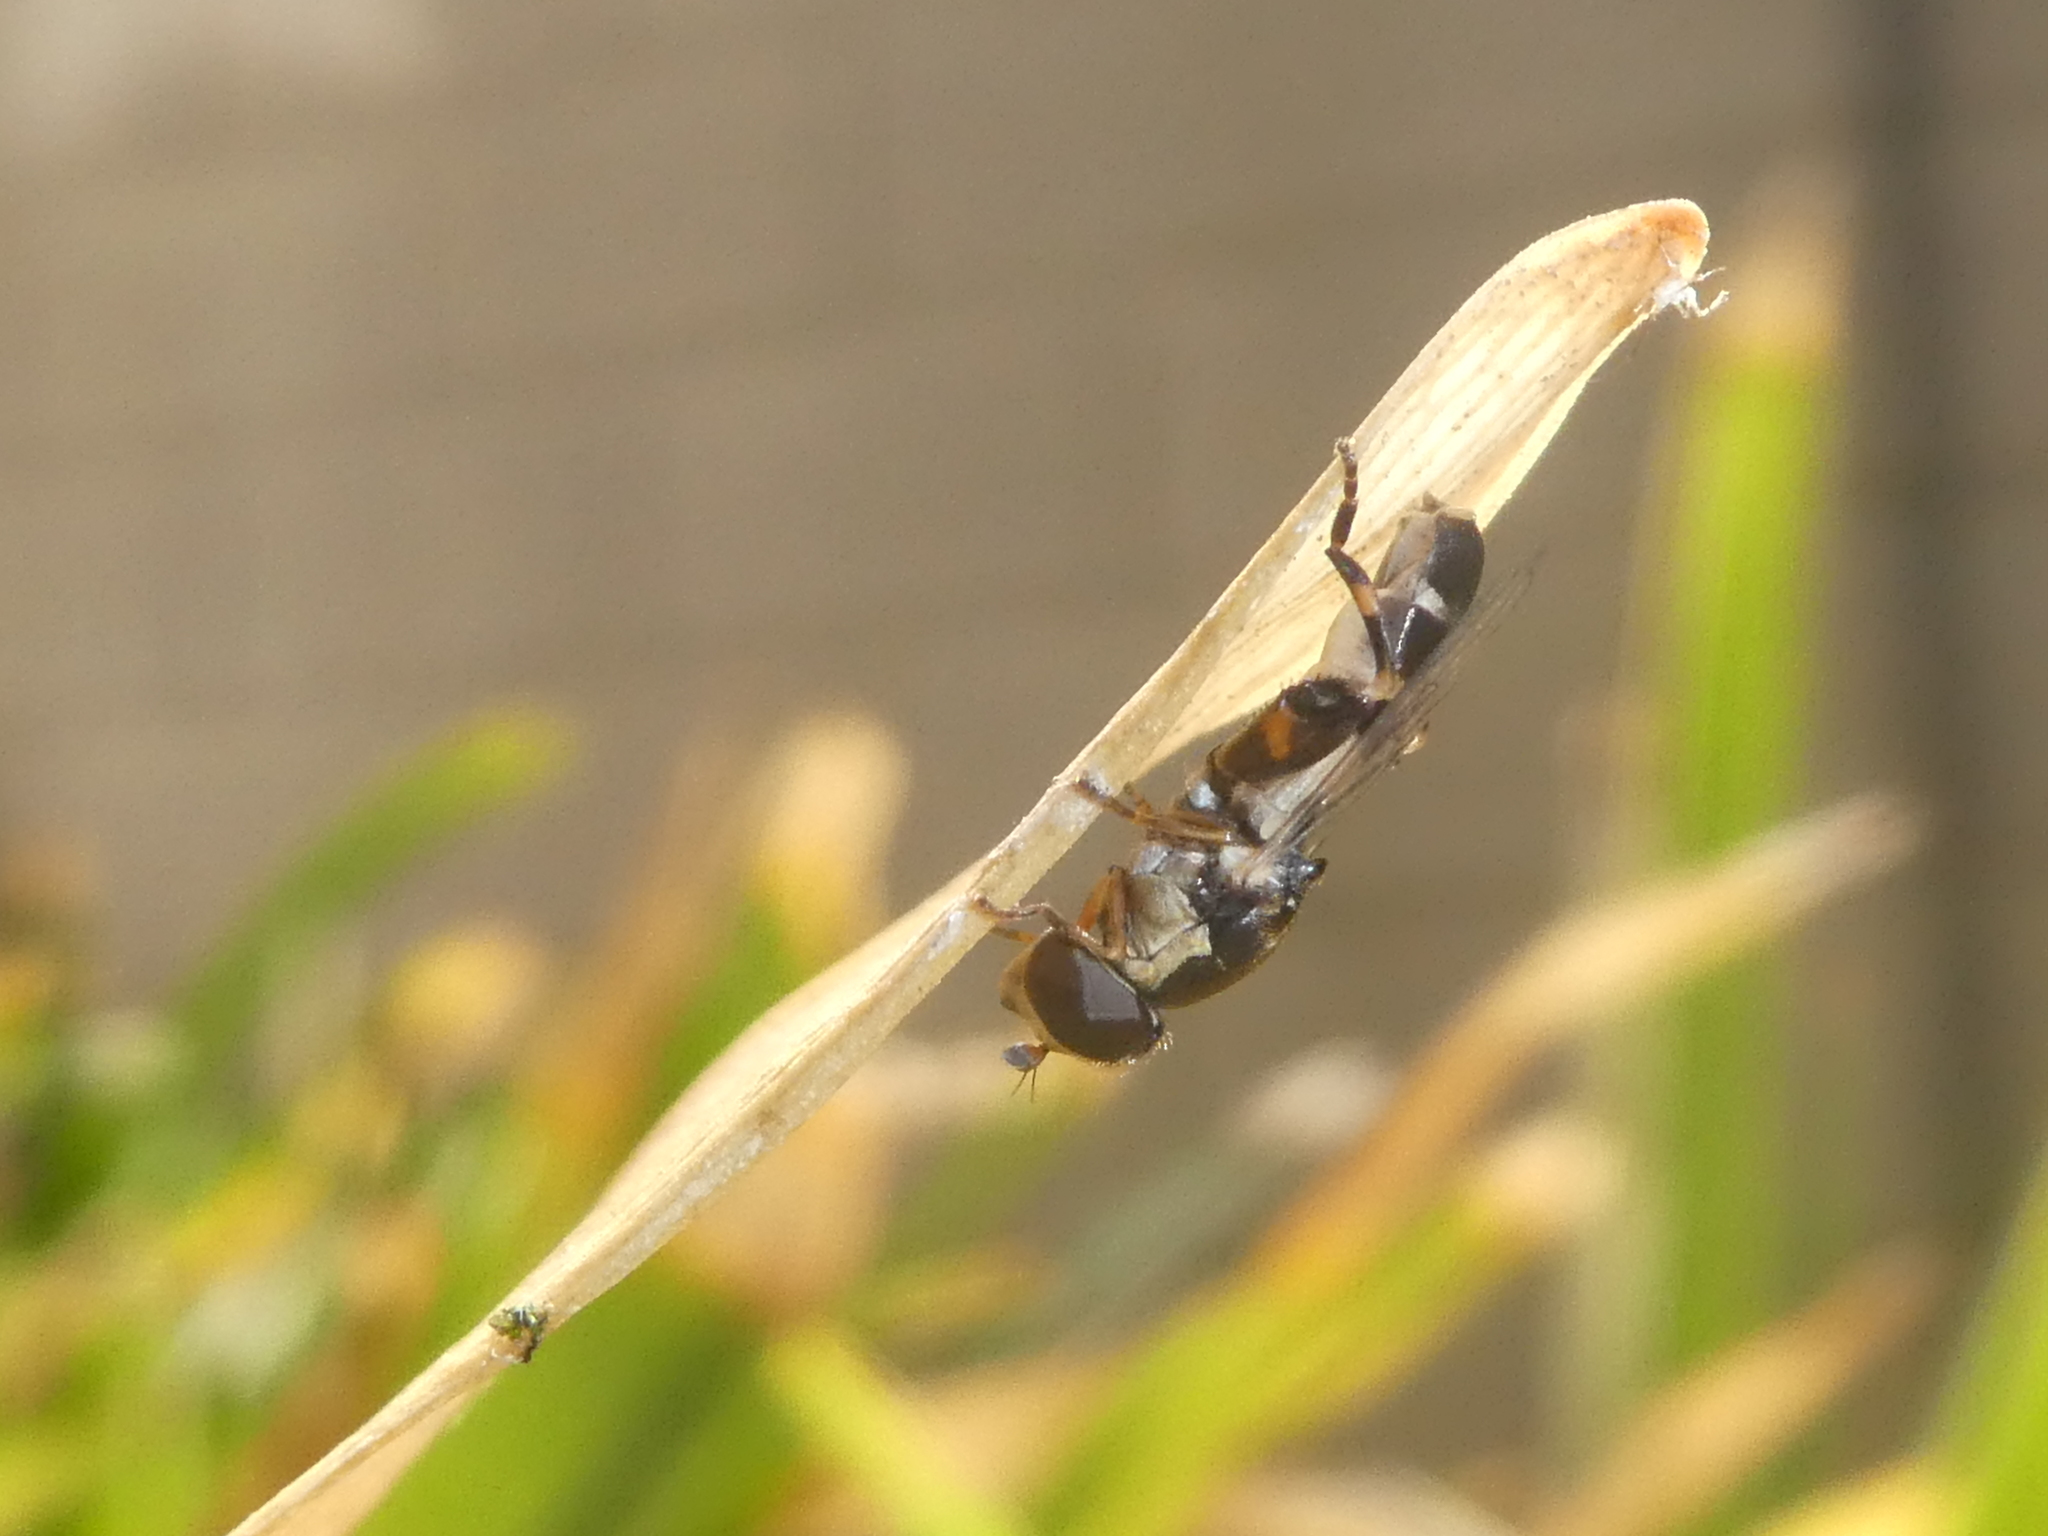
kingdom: Animalia
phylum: Arthropoda
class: Insecta
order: Diptera
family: Syrphidae
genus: Syritta
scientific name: Syritta pipiens
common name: Hover fly
